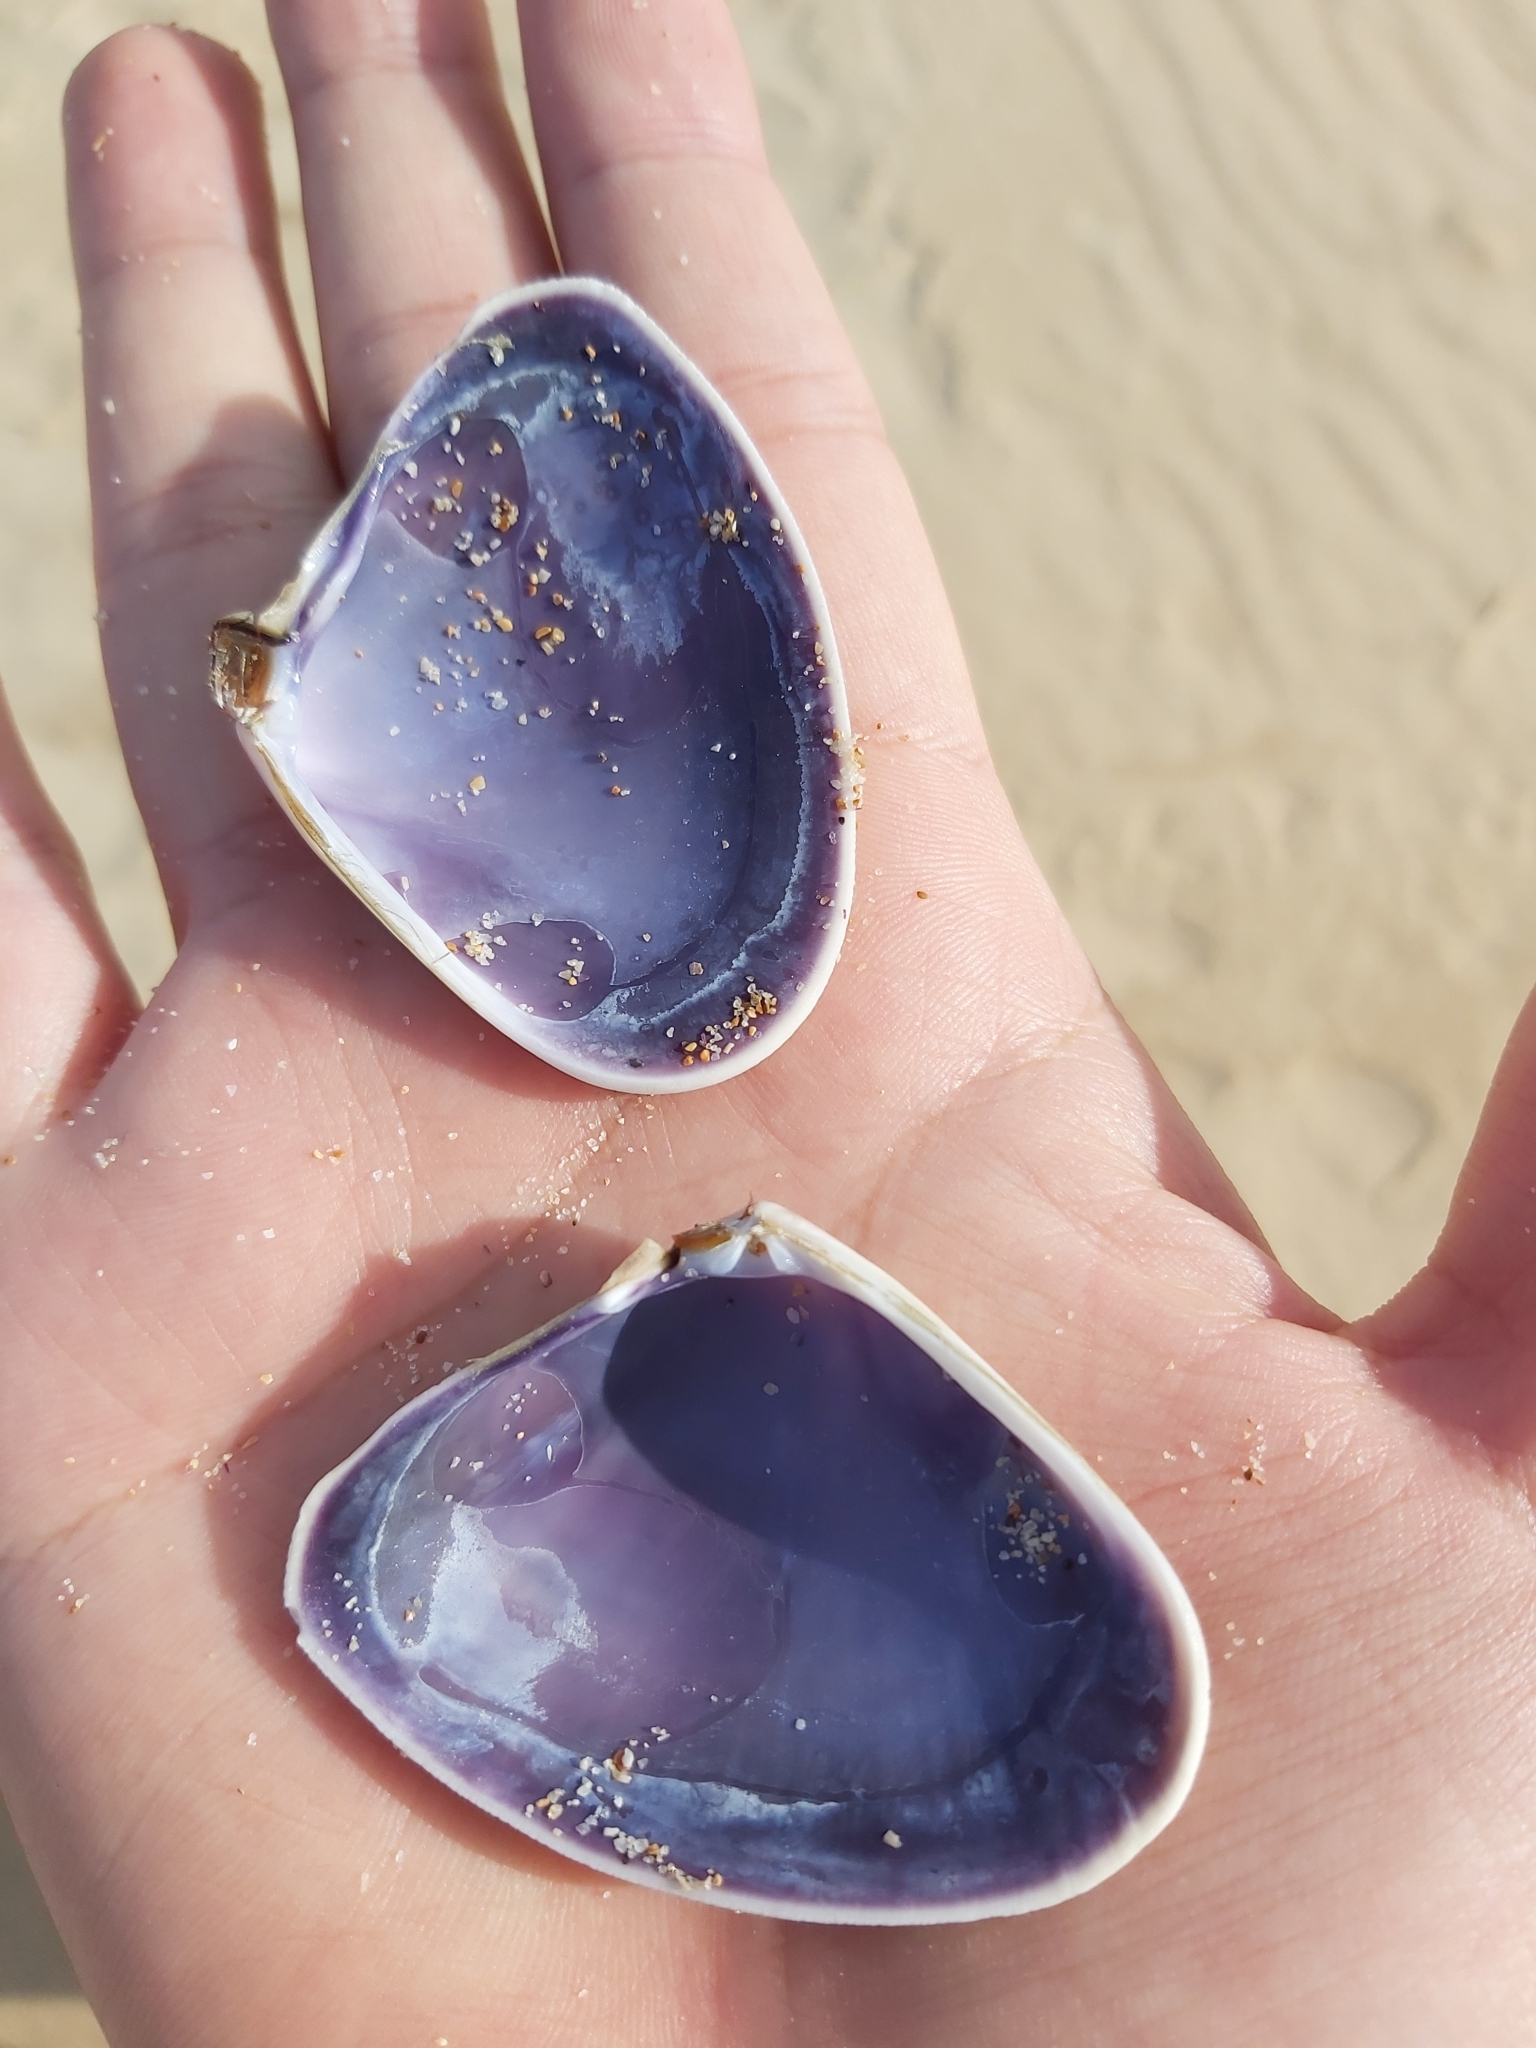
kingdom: Animalia
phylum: Mollusca
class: Bivalvia
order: Cardiida
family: Donacidae
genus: Latona
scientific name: Latona deltoides
